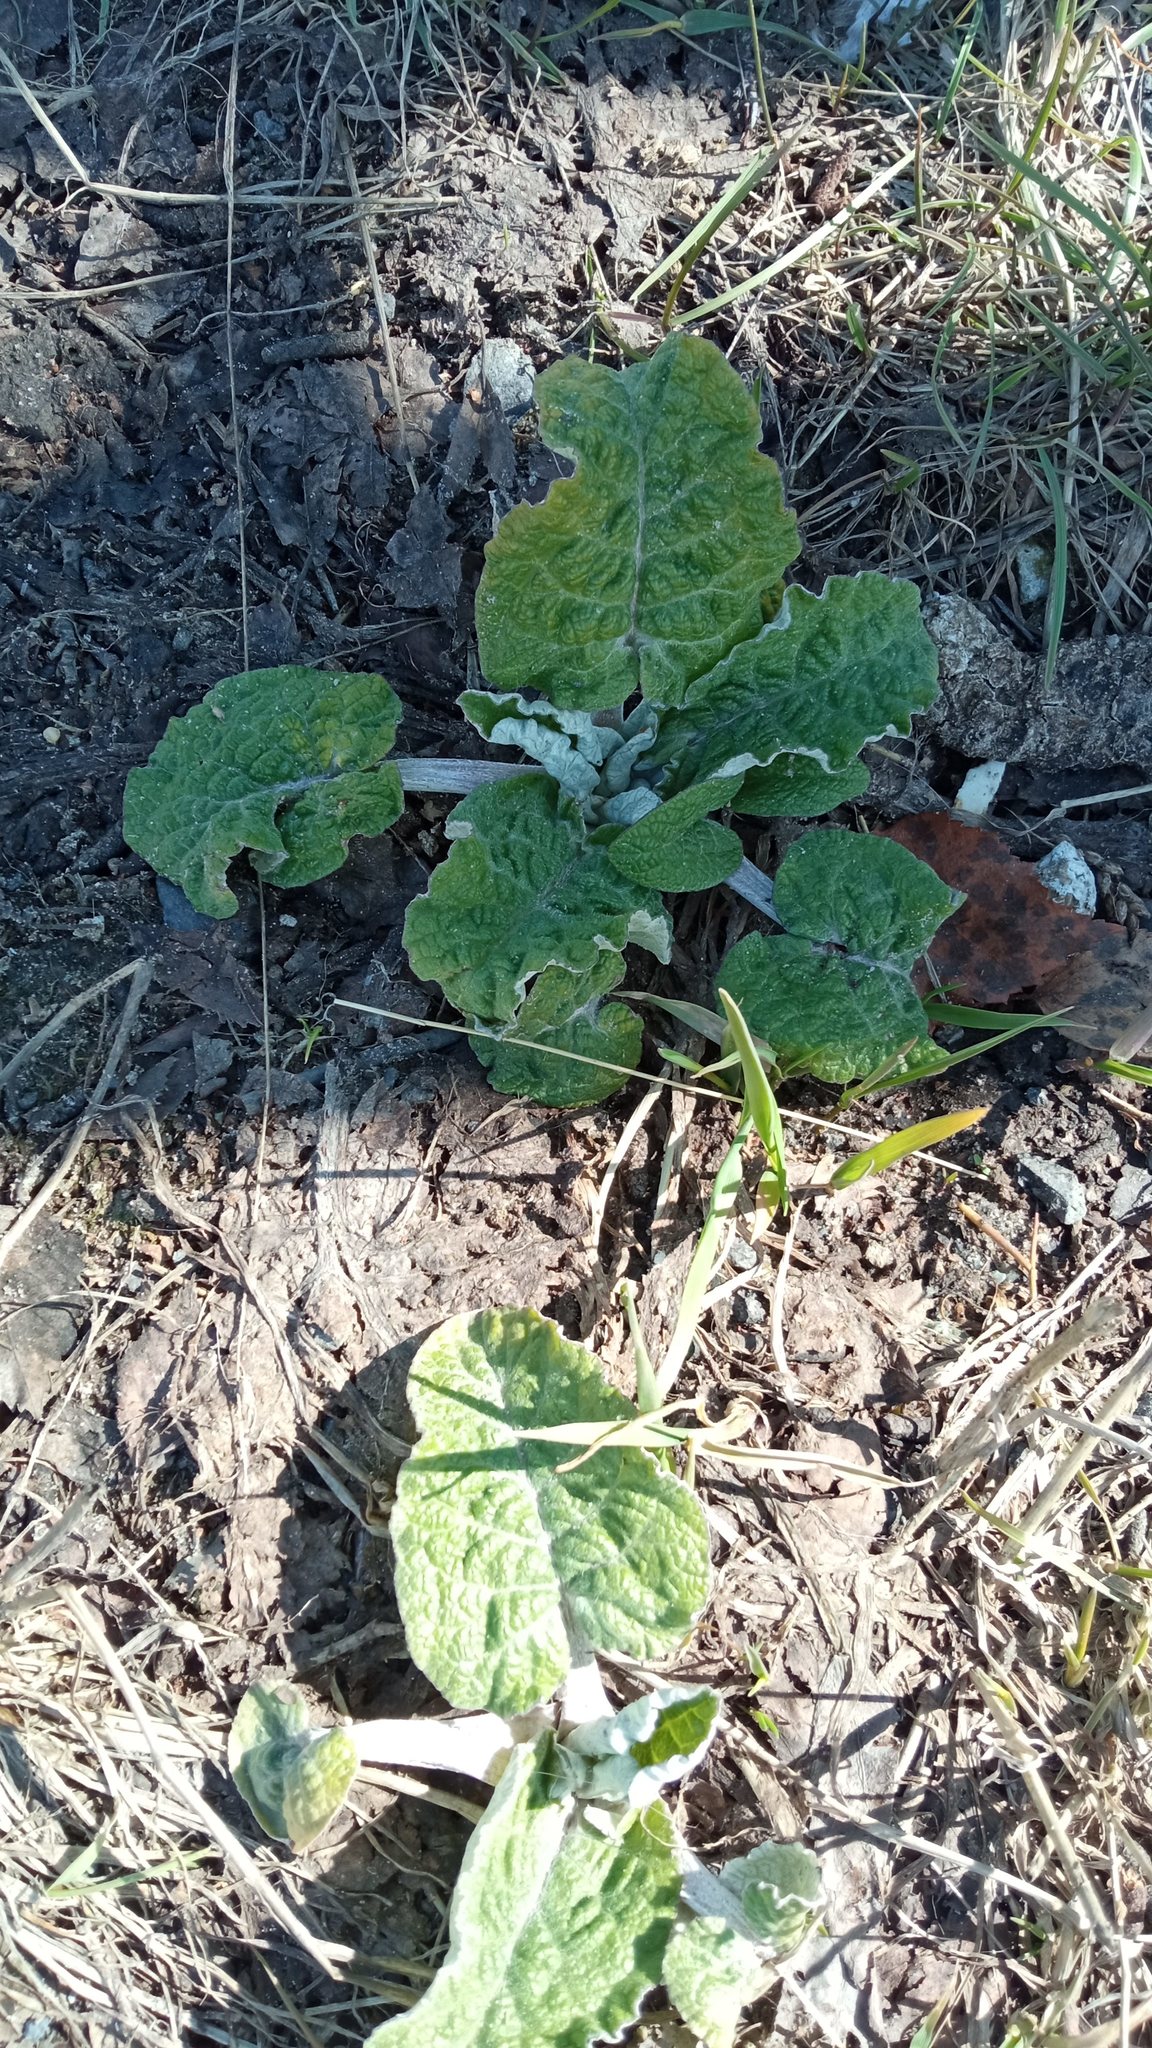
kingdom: Plantae
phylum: Tracheophyta
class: Magnoliopsida
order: Asterales
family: Asteraceae
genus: Arctium
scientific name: Arctium tomentosum
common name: Woolly burdock
